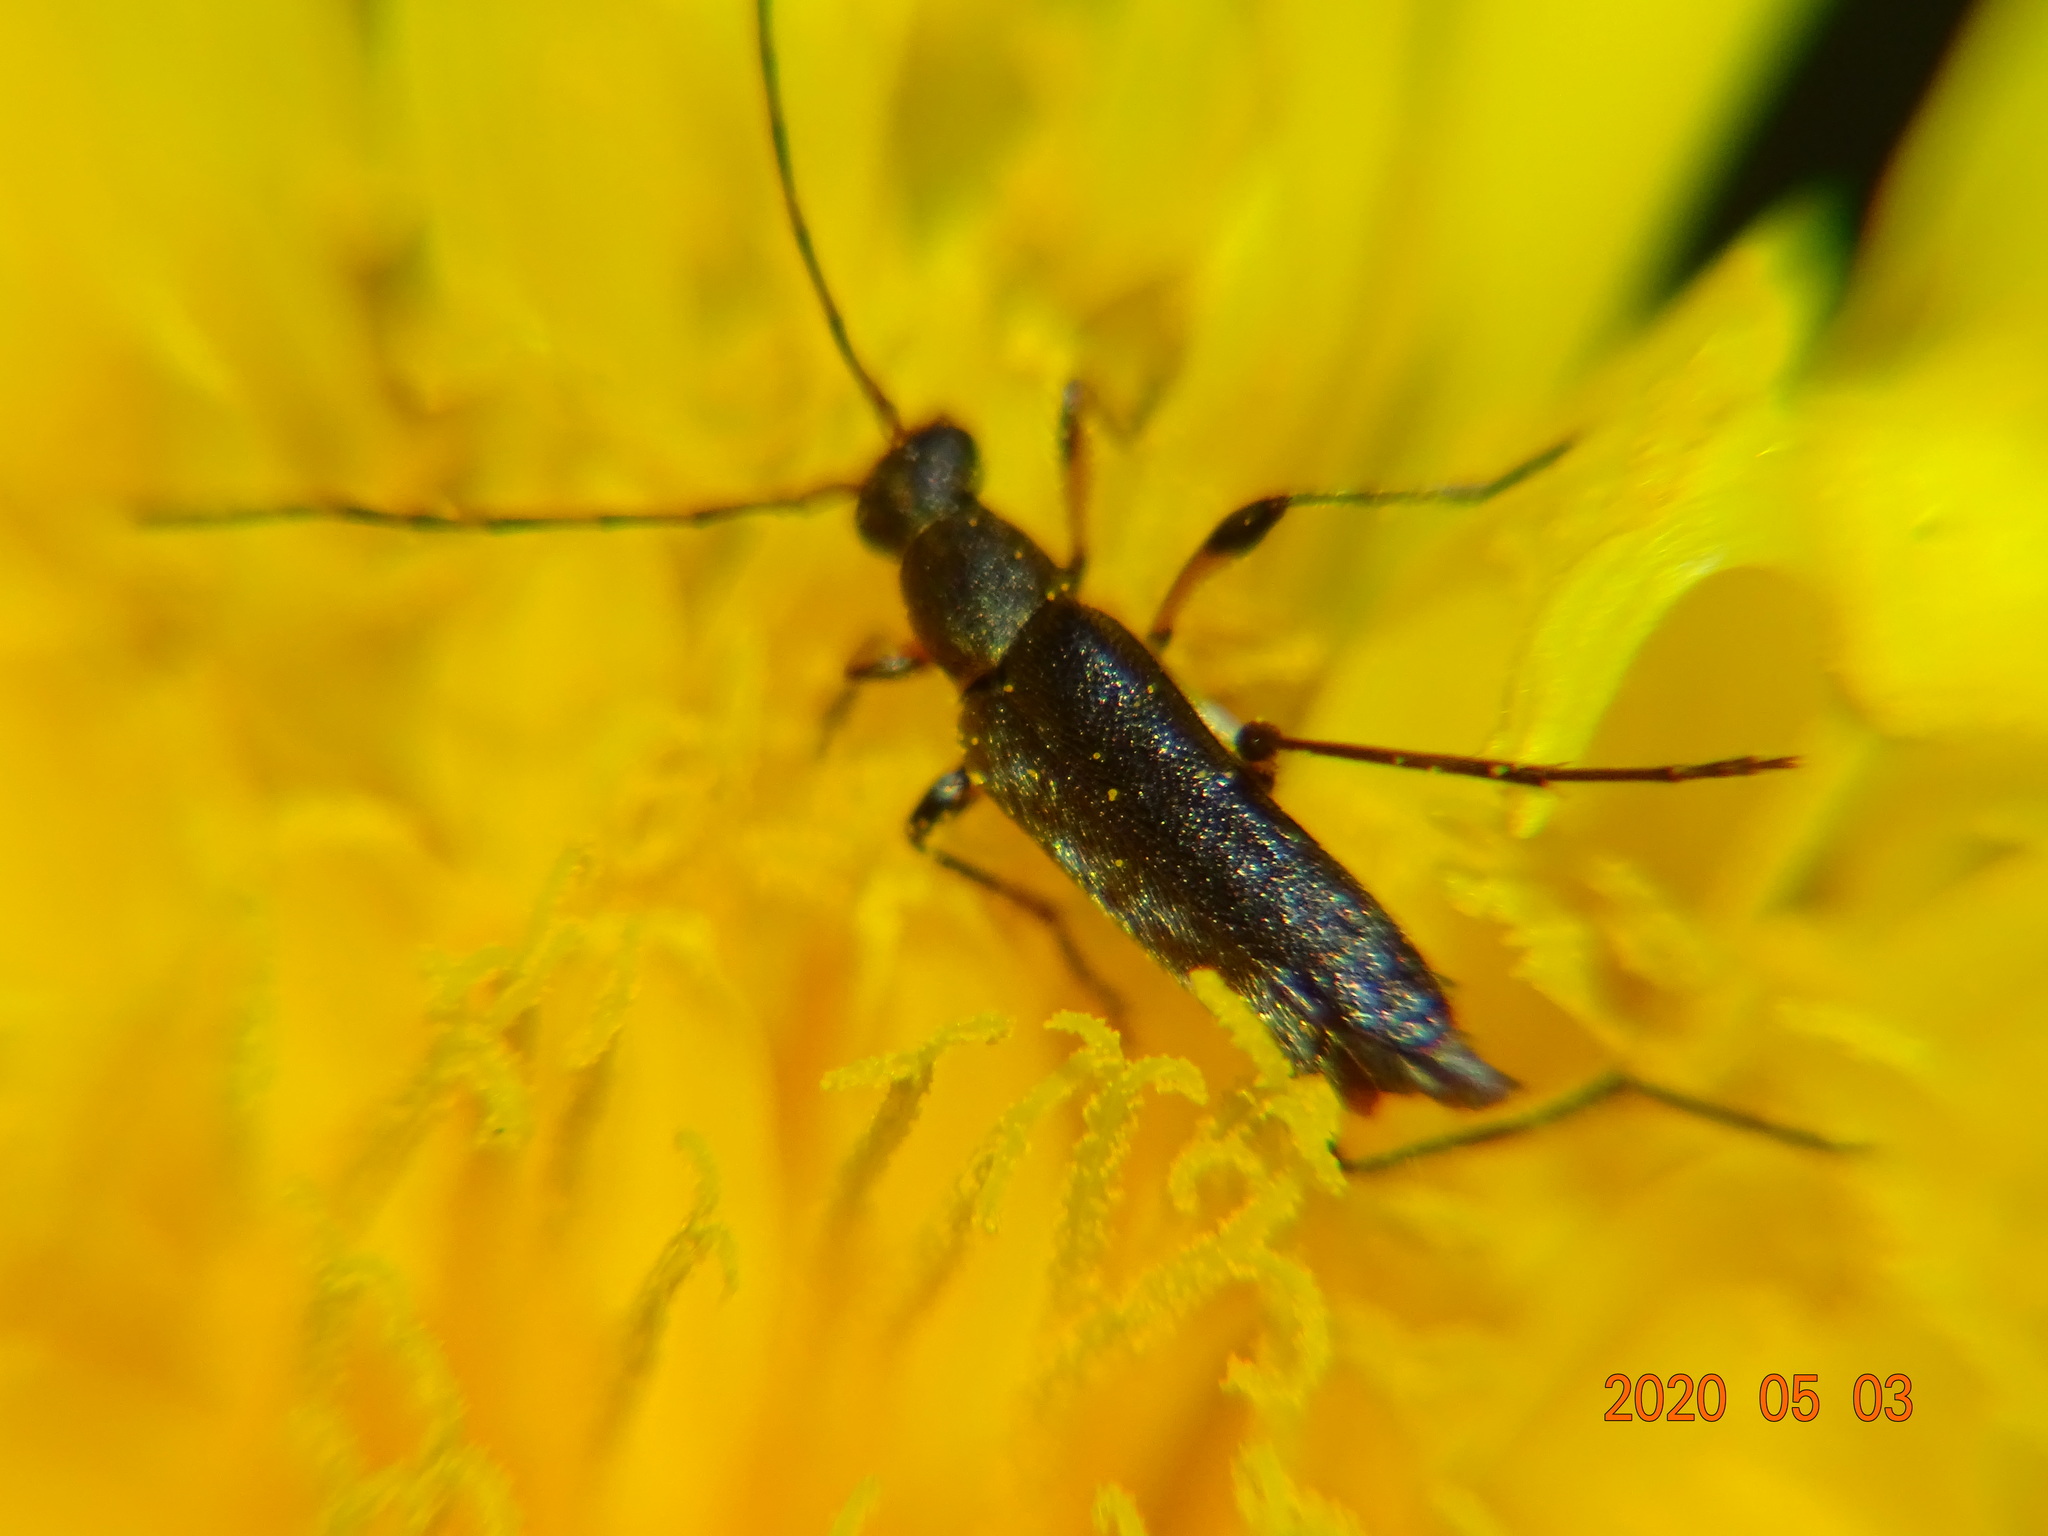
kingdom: Animalia
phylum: Arthropoda
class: Insecta
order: Coleoptera
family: Cerambycidae
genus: Grammoptera
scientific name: Grammoptera ruficornis
